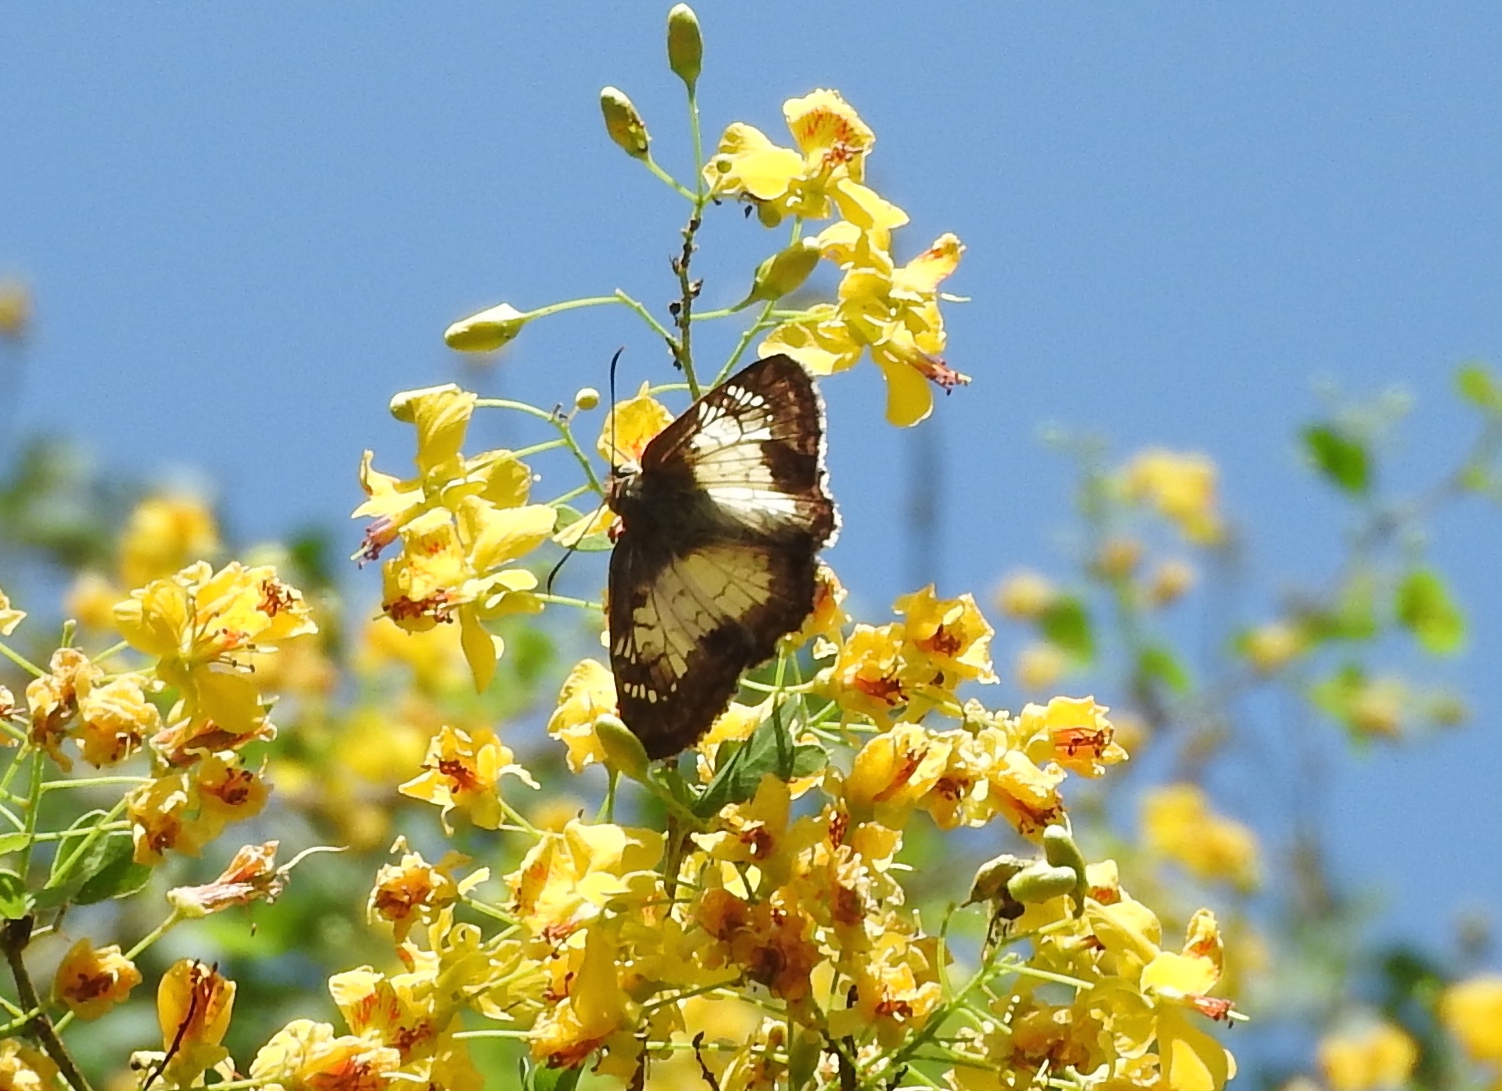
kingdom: Animalia
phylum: Arthropoda
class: Insecta
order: Lepidoptera
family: Hesperiidae
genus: Antigonus
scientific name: Antigonus emorsa
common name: White spurwing
